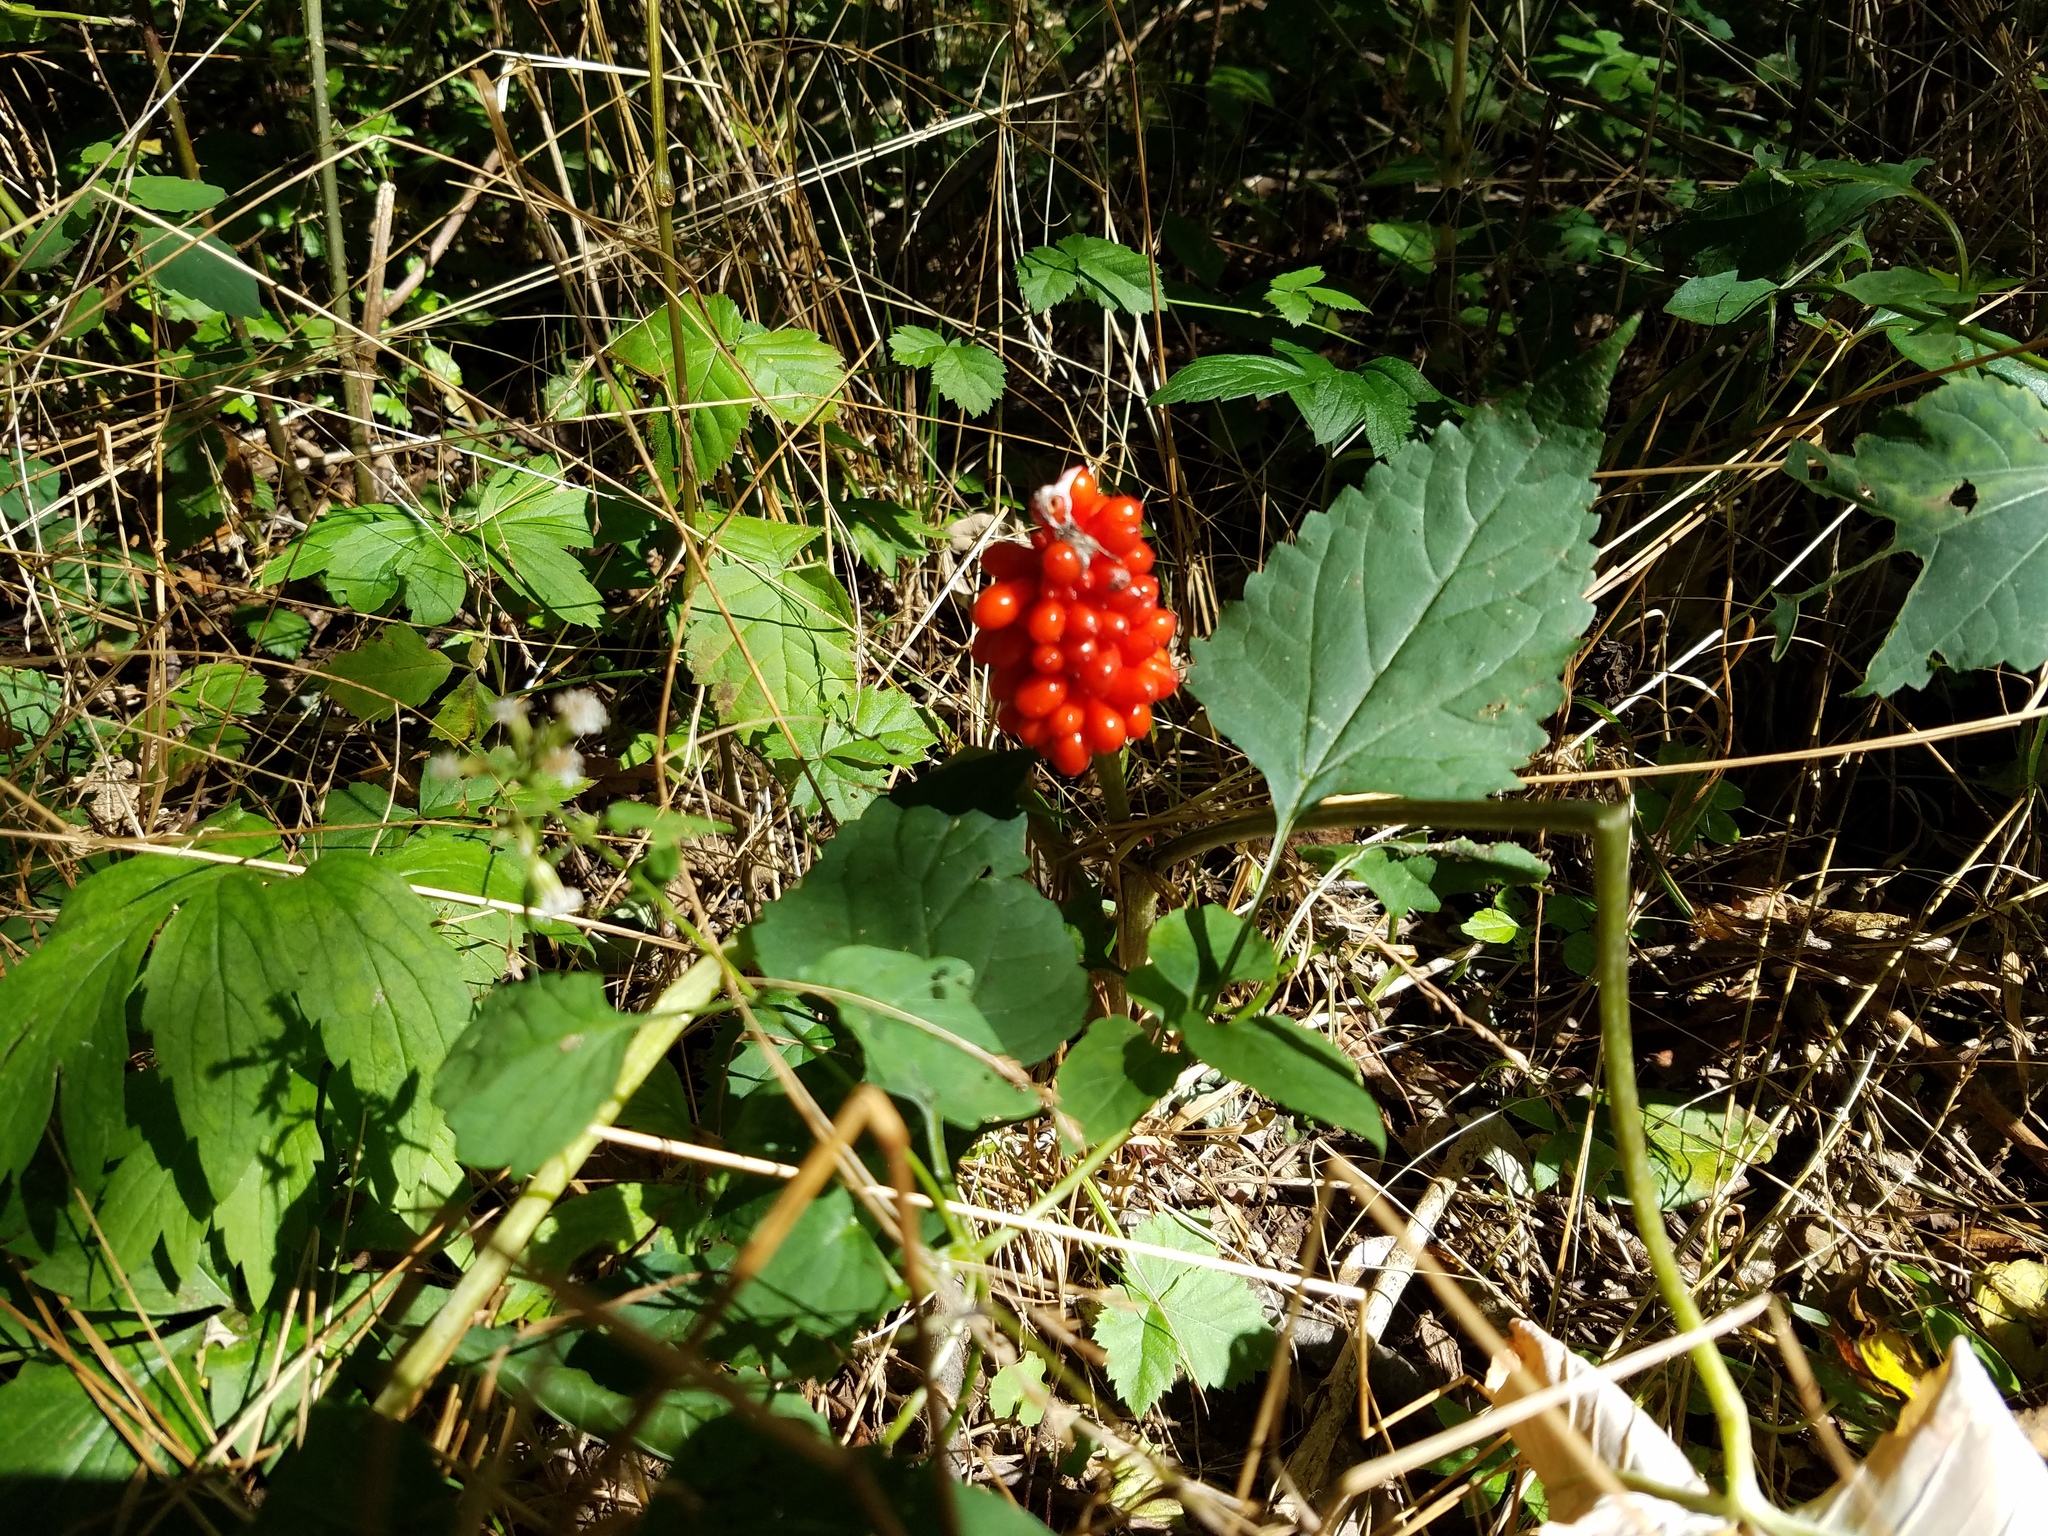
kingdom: Plantae
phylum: Tracheophyta
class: Liliopsida
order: Alismatales
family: Araceae
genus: Arisaema
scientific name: Arisaema triphyllum
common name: Jack-in-the-pulpit
